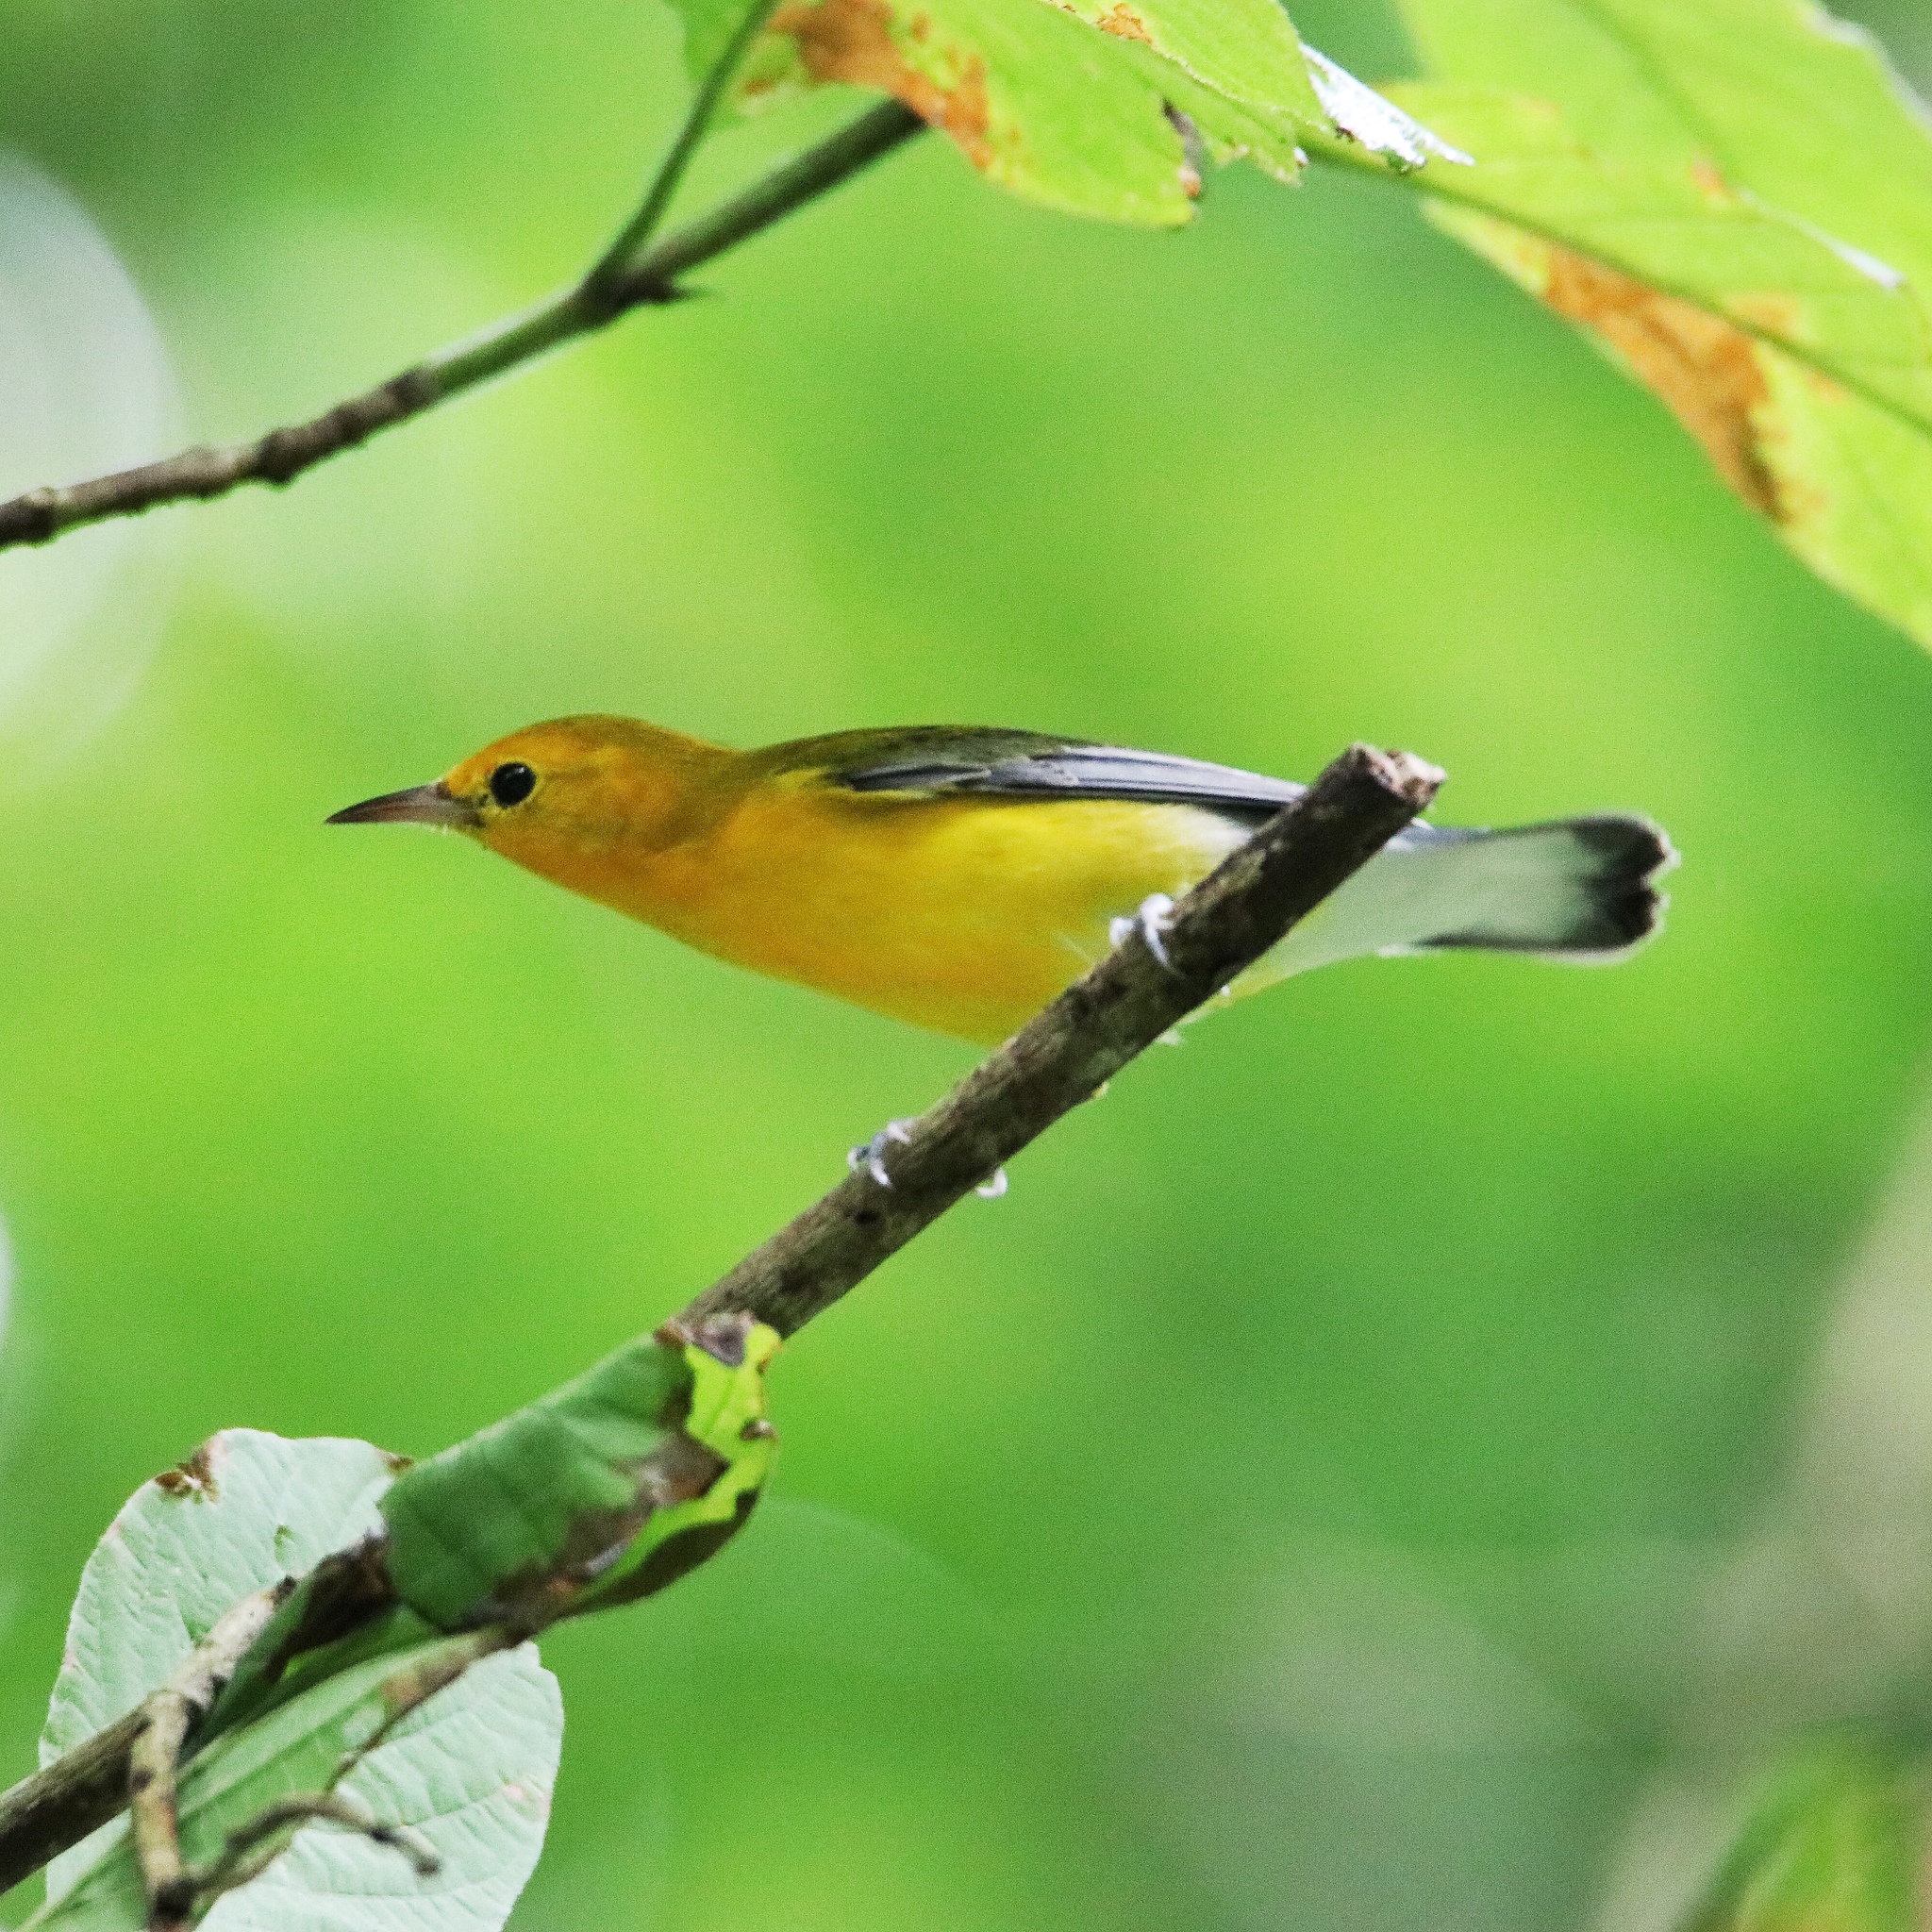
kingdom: Animalia
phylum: Chordata
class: Aves
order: Passeriformes
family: Parulidae
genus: Protonotaria
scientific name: Protonotaria citrea
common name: Prothonotary warbler
